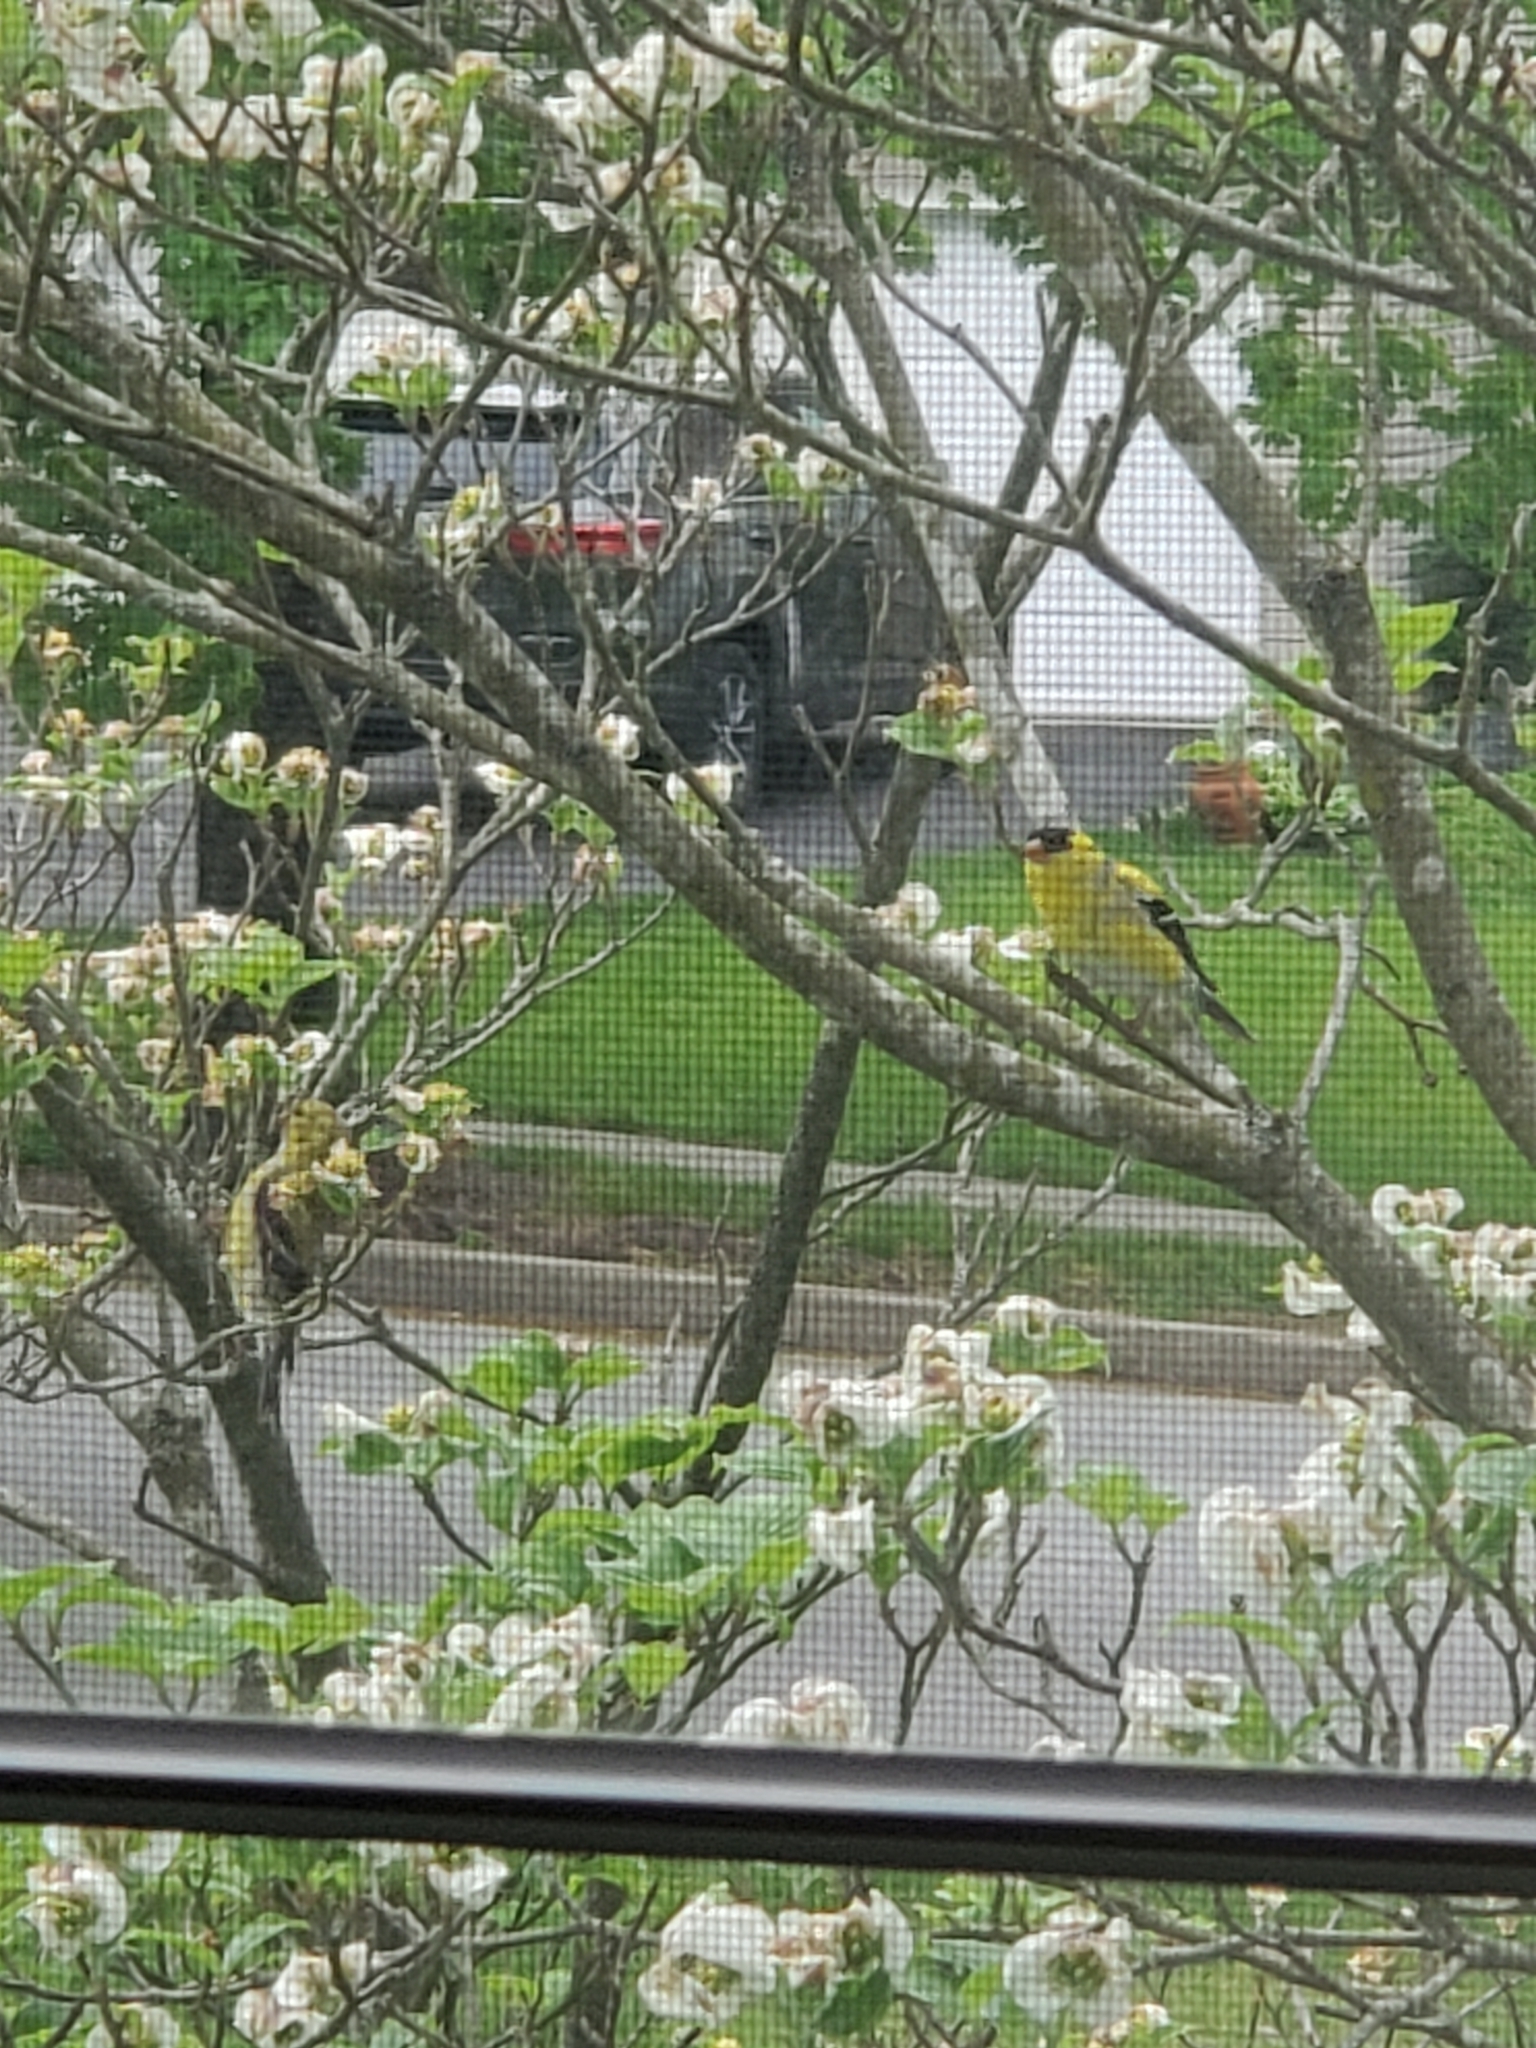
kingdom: Animalia
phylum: Chordata
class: Aves
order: Passeriformes
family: Fringillidae
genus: Spinus
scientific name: Spinus tristis
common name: American goldfinch
